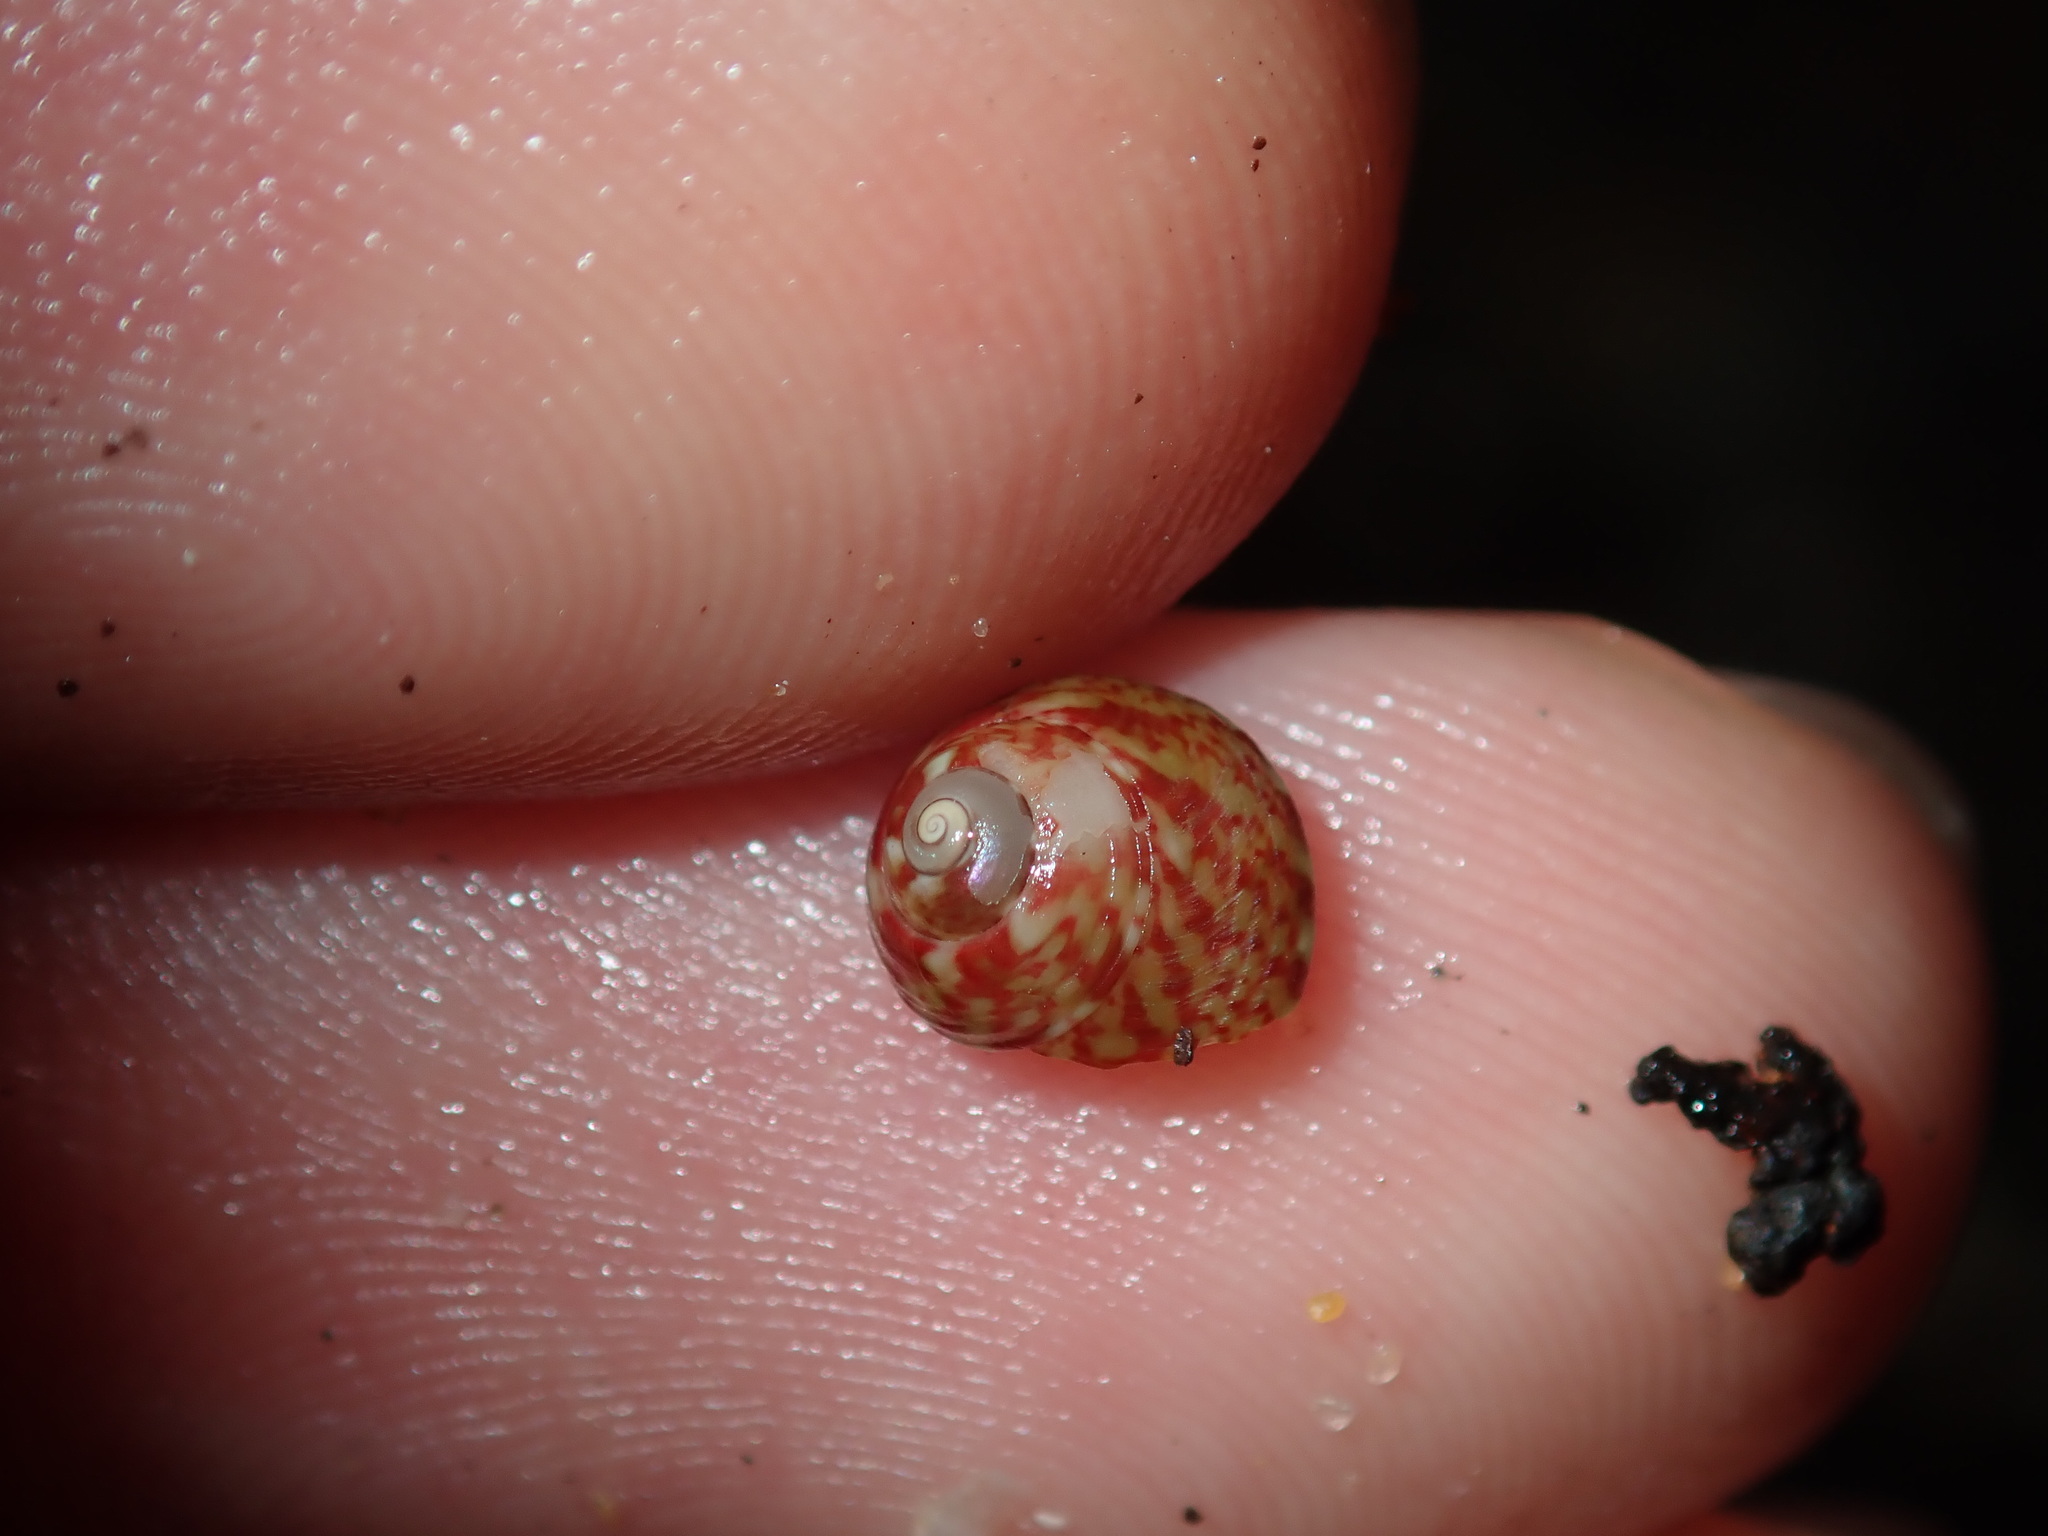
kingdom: Animalia
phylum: Mollusca
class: Gastropoda
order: Trochida
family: Trochidae
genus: Cantharidella
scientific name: Cantharidella picturata
